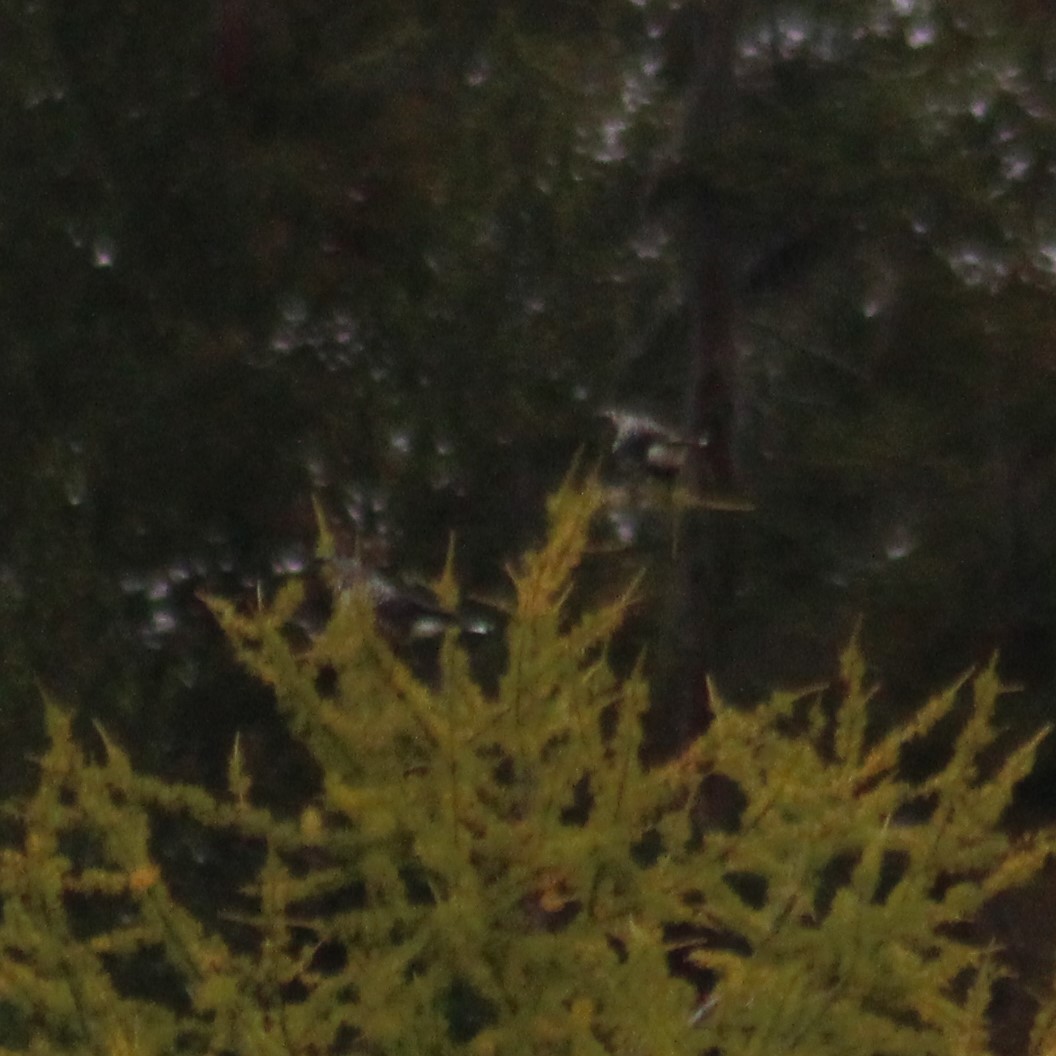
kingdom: Animalia
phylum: Chordata
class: Aves
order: Passeriformes
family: Corvidae
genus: Nucifraga
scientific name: Nucifraga caryocatactes
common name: Spotted nutcracker
